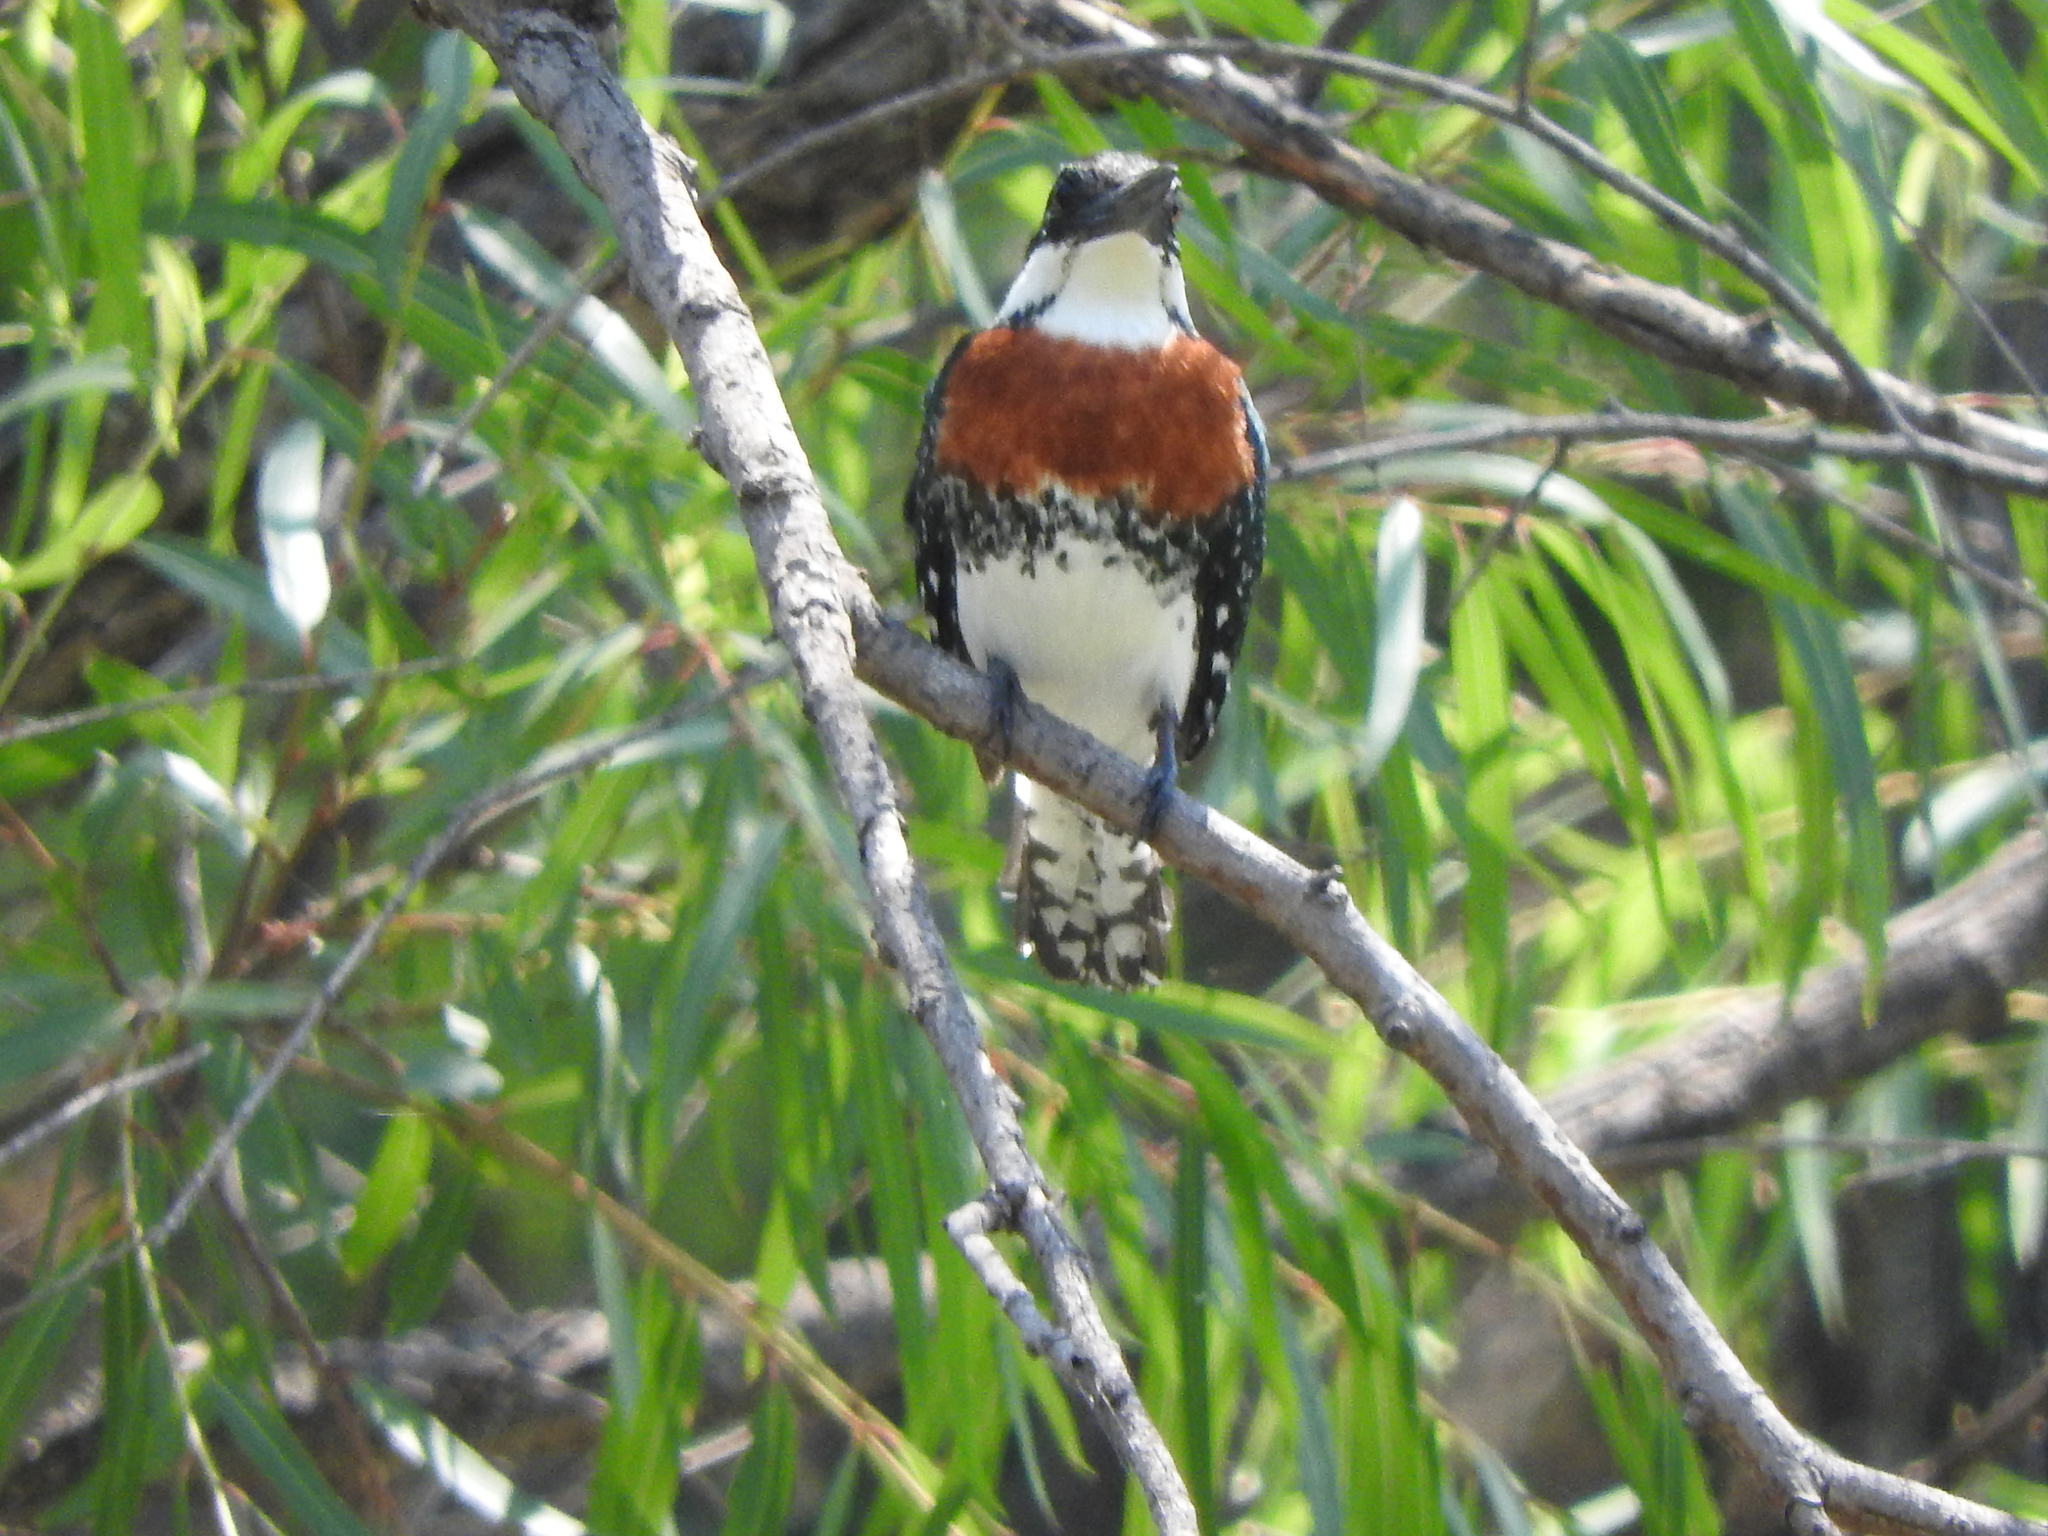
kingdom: Animalia
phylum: Chordata
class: Aves
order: Coraciiformes
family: Alcedinidae
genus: Chloroceryle
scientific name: Chloroceryle americana
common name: Green kingfisher
